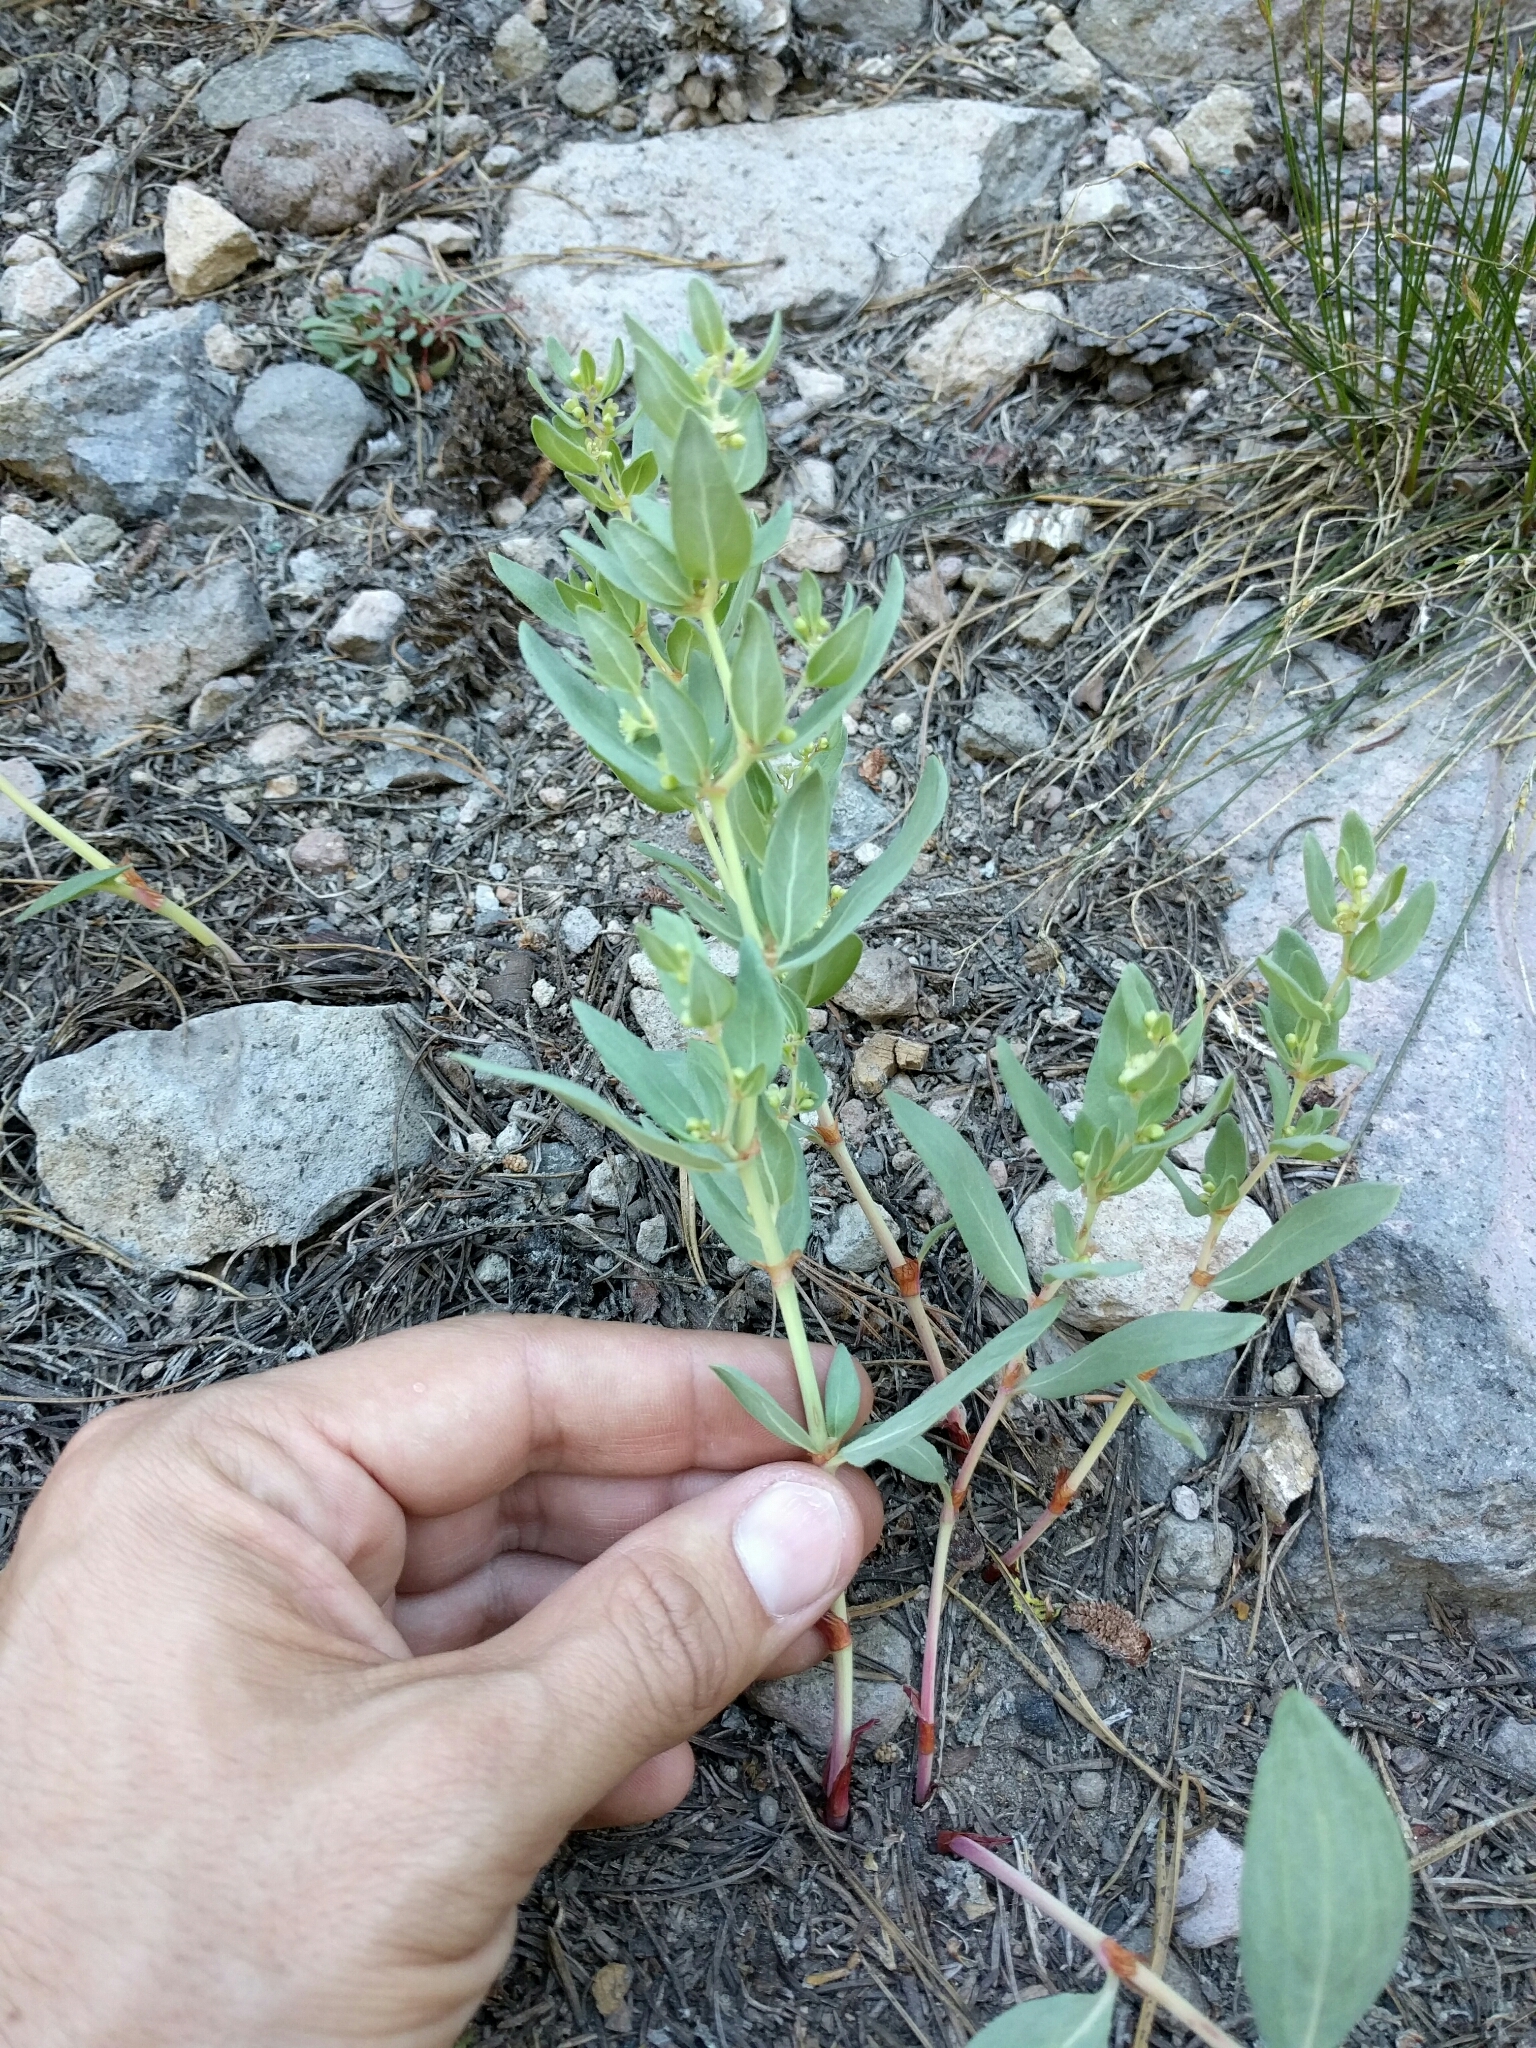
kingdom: Plantae
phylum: Tracheophyta
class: Magnoliopsida
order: Caryophyllales
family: Polygonaceae
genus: Koenigia
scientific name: Koenigia davisiae
